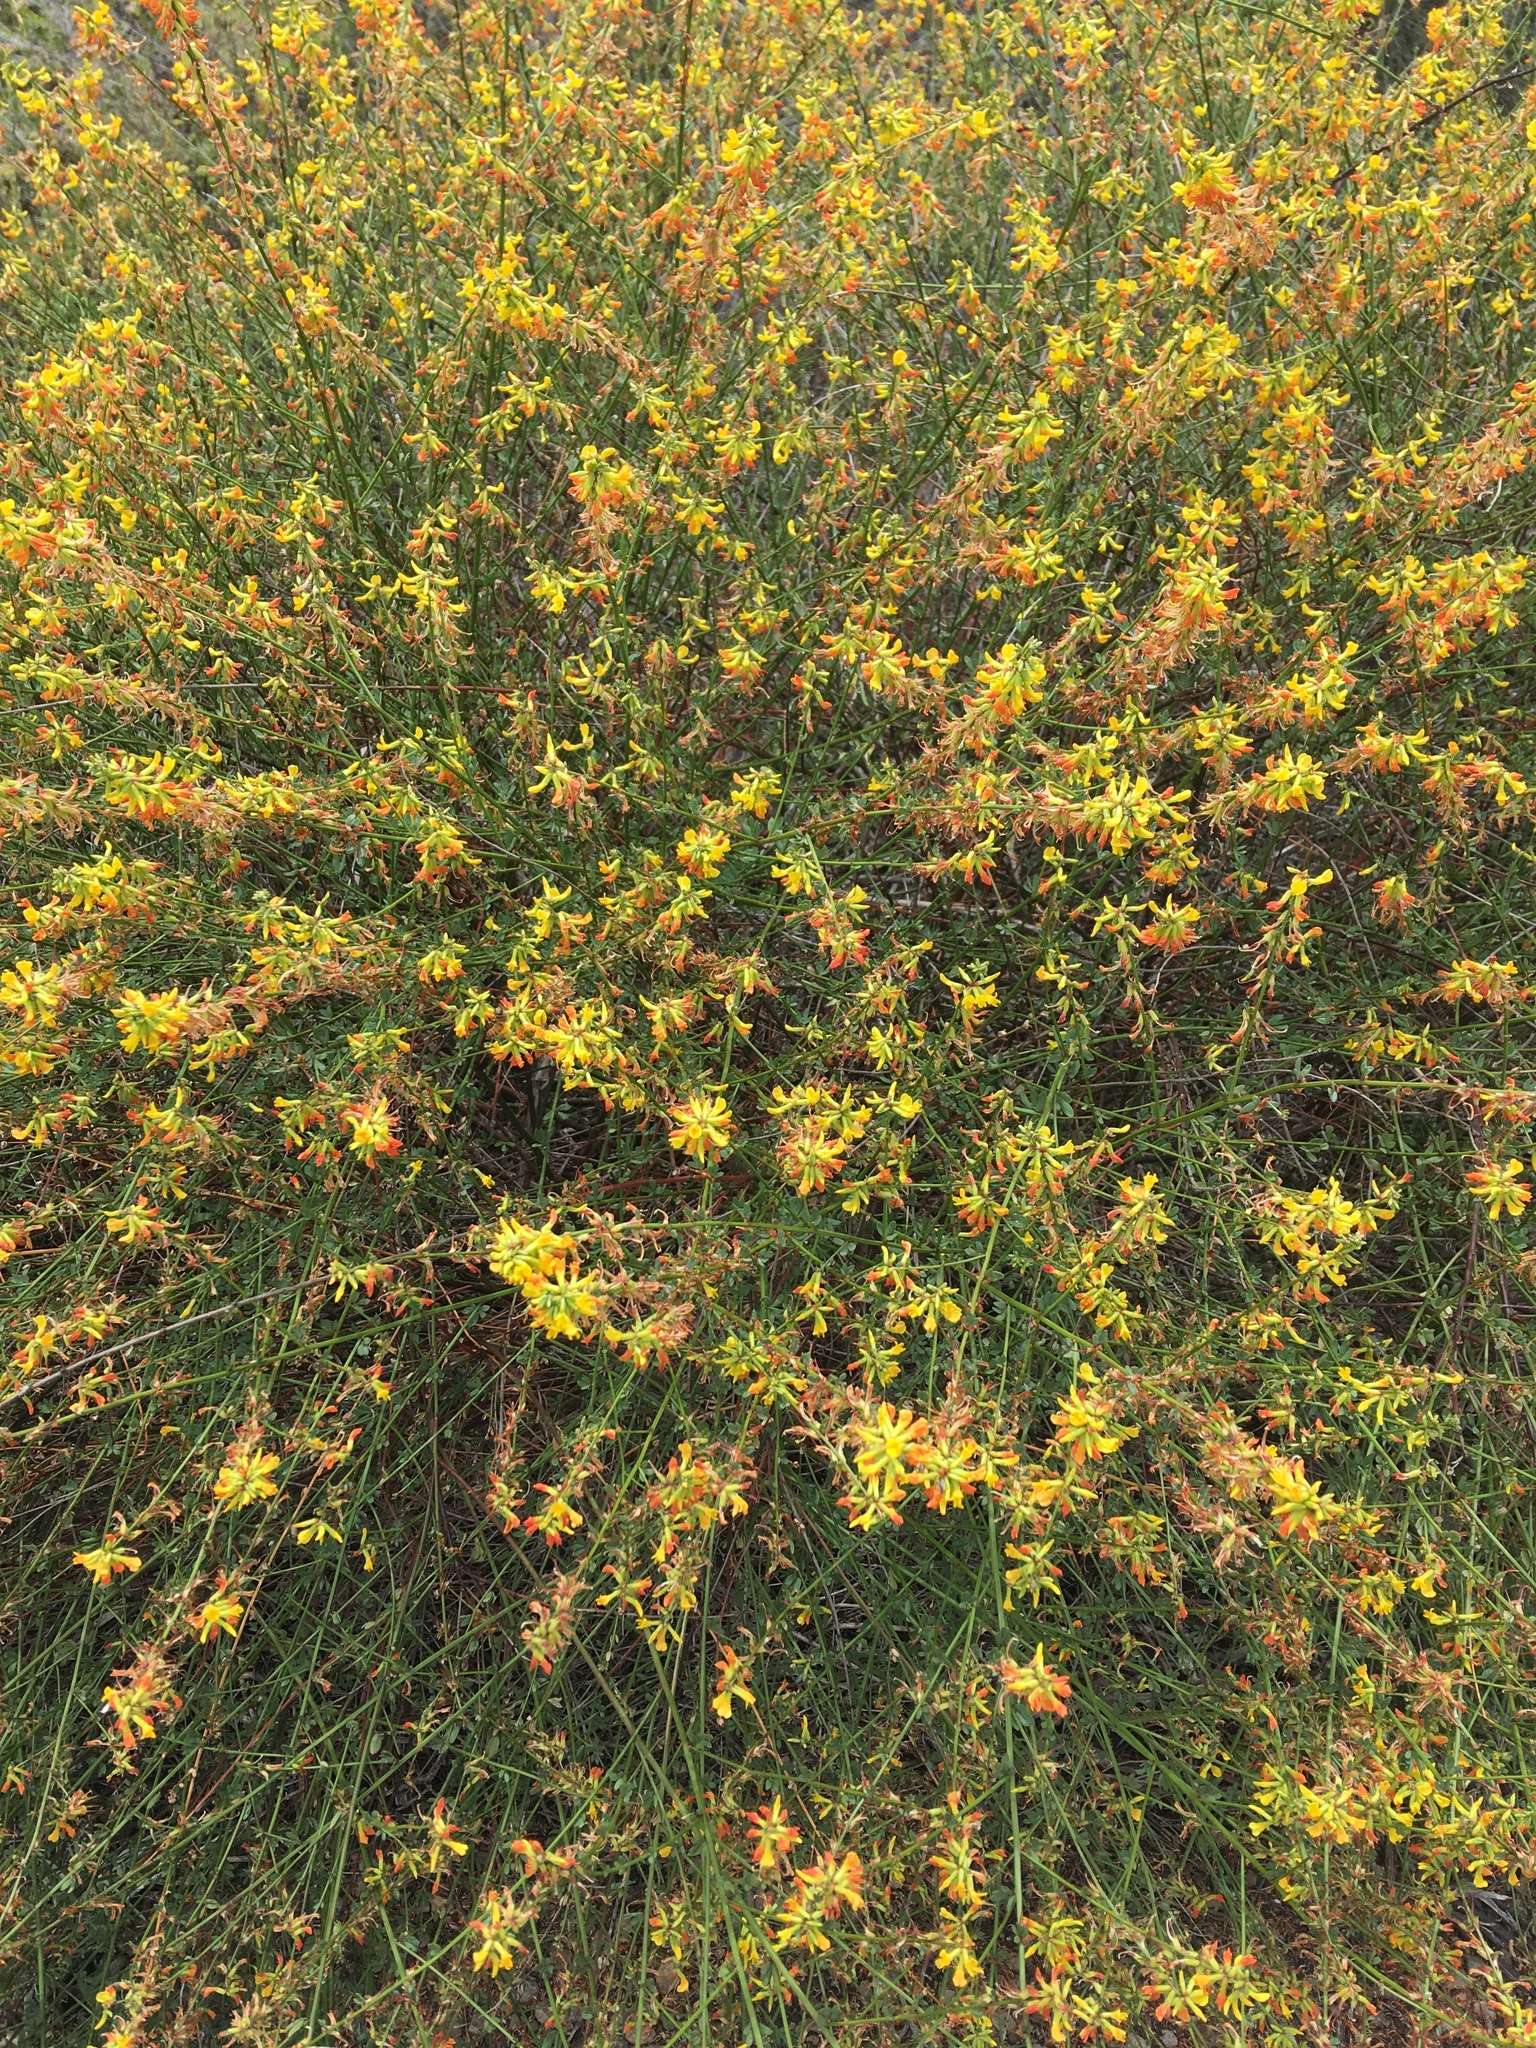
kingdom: Plantae
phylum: Tracheophyta
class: Magnoliopsida
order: Fabales
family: Fabaceae
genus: Acmispon
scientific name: Acmispon glaber
